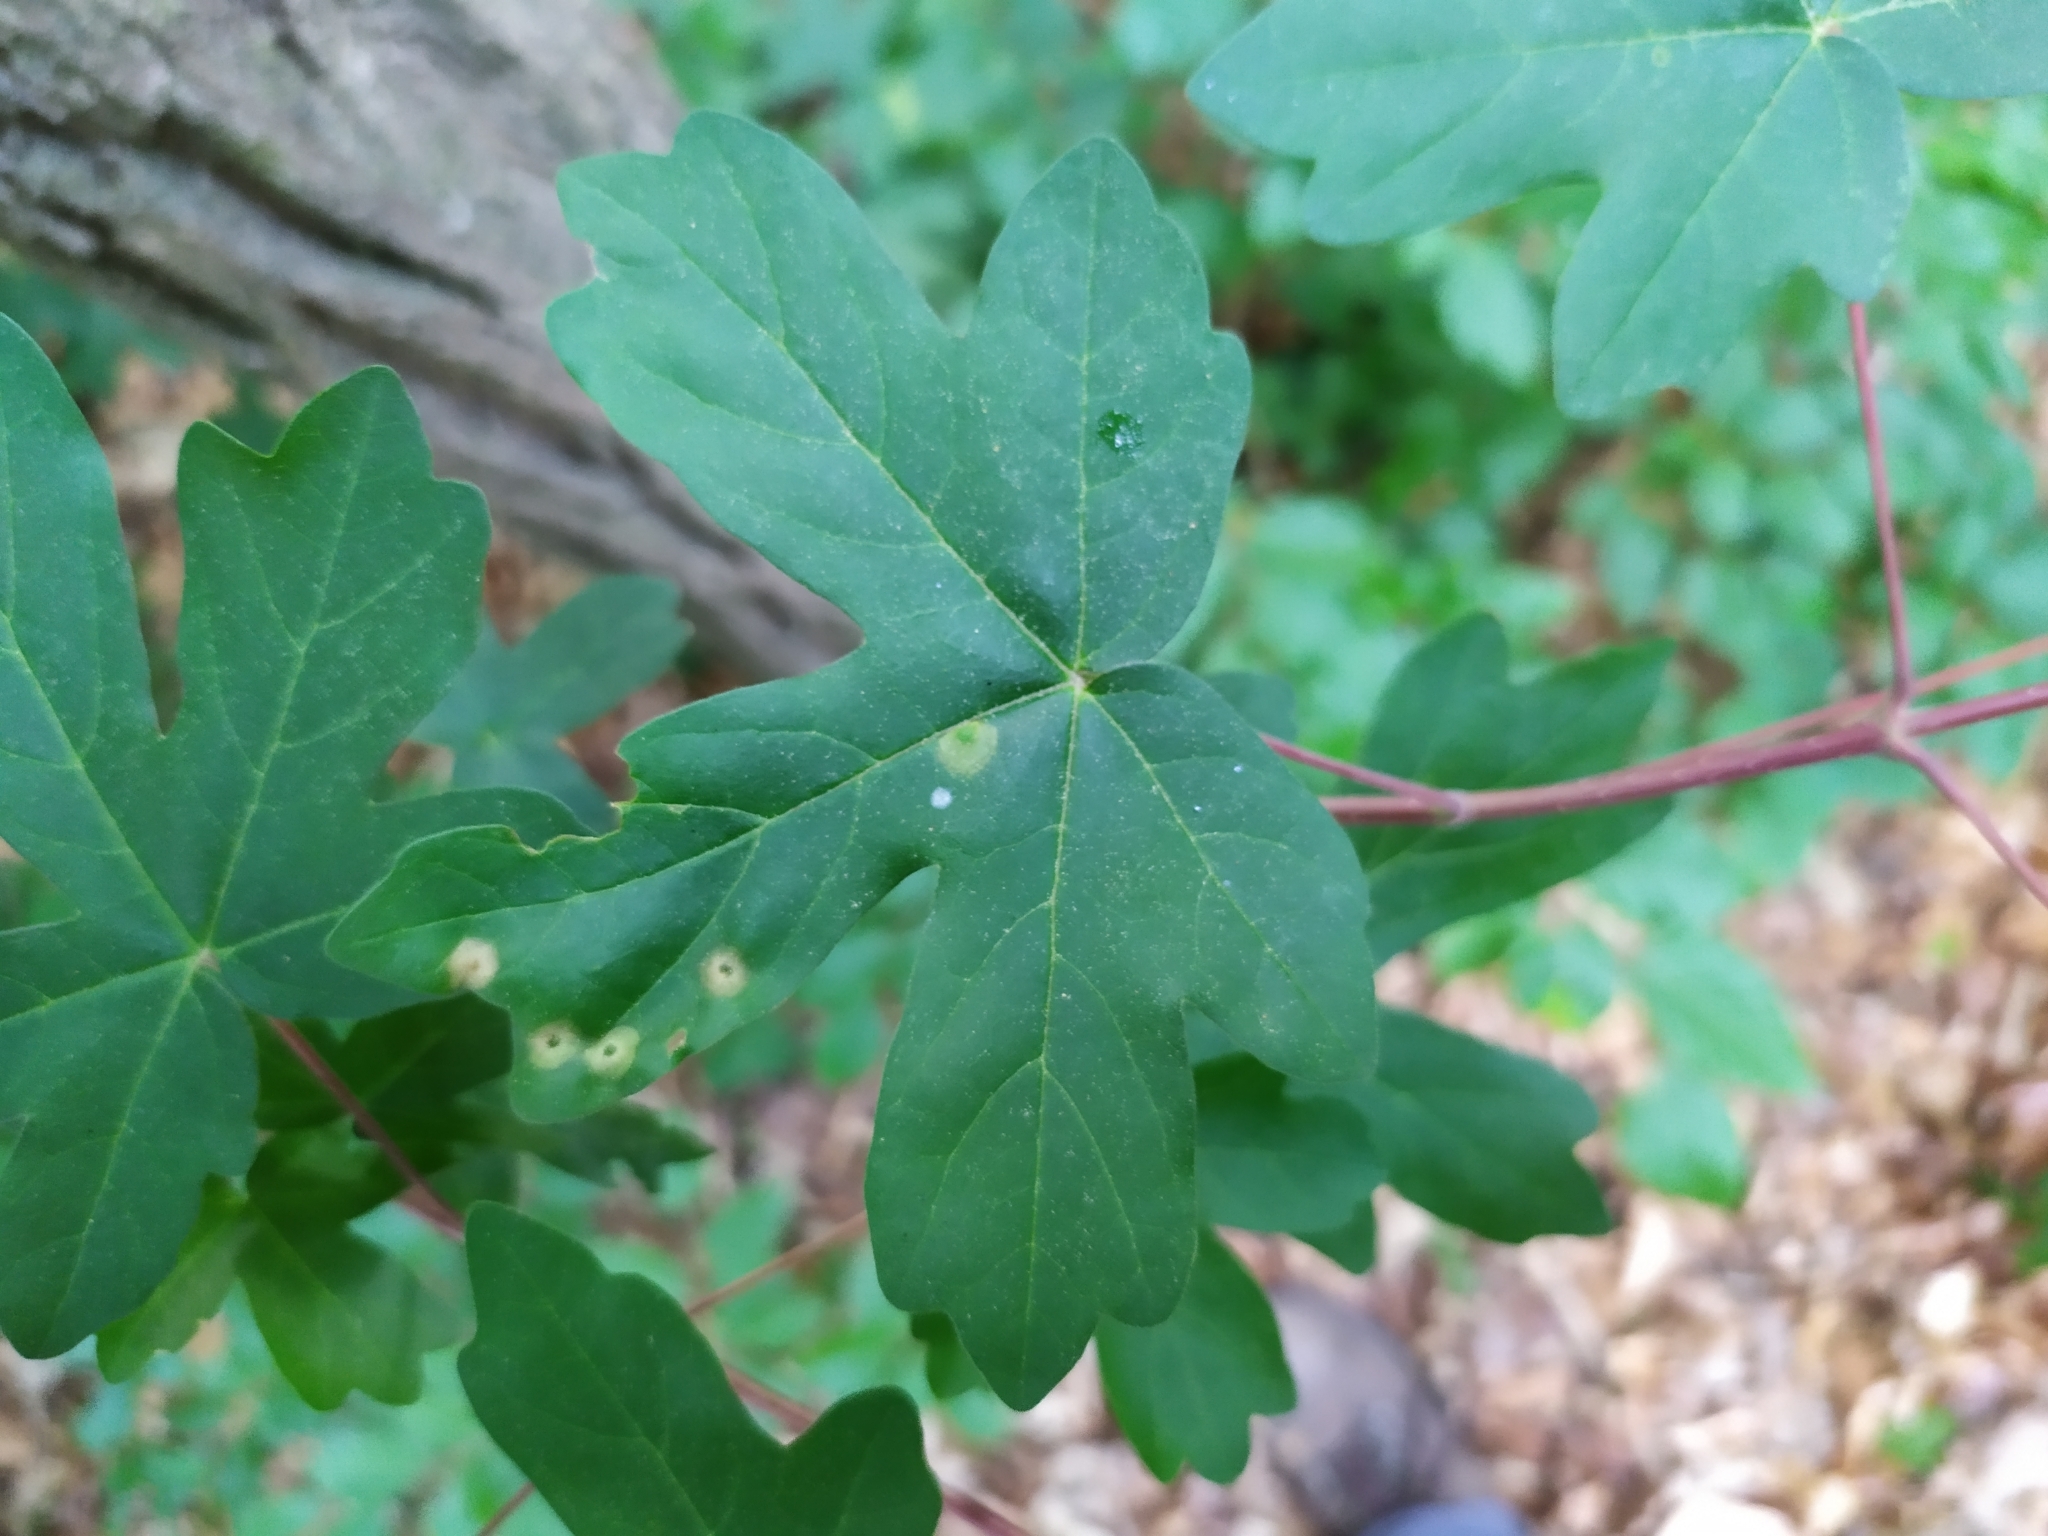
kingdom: Animalia
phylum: Arthropoda
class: Insecta
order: Diptera
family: Cecidomyiidae
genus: Acericecis
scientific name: Acericecis campestre
